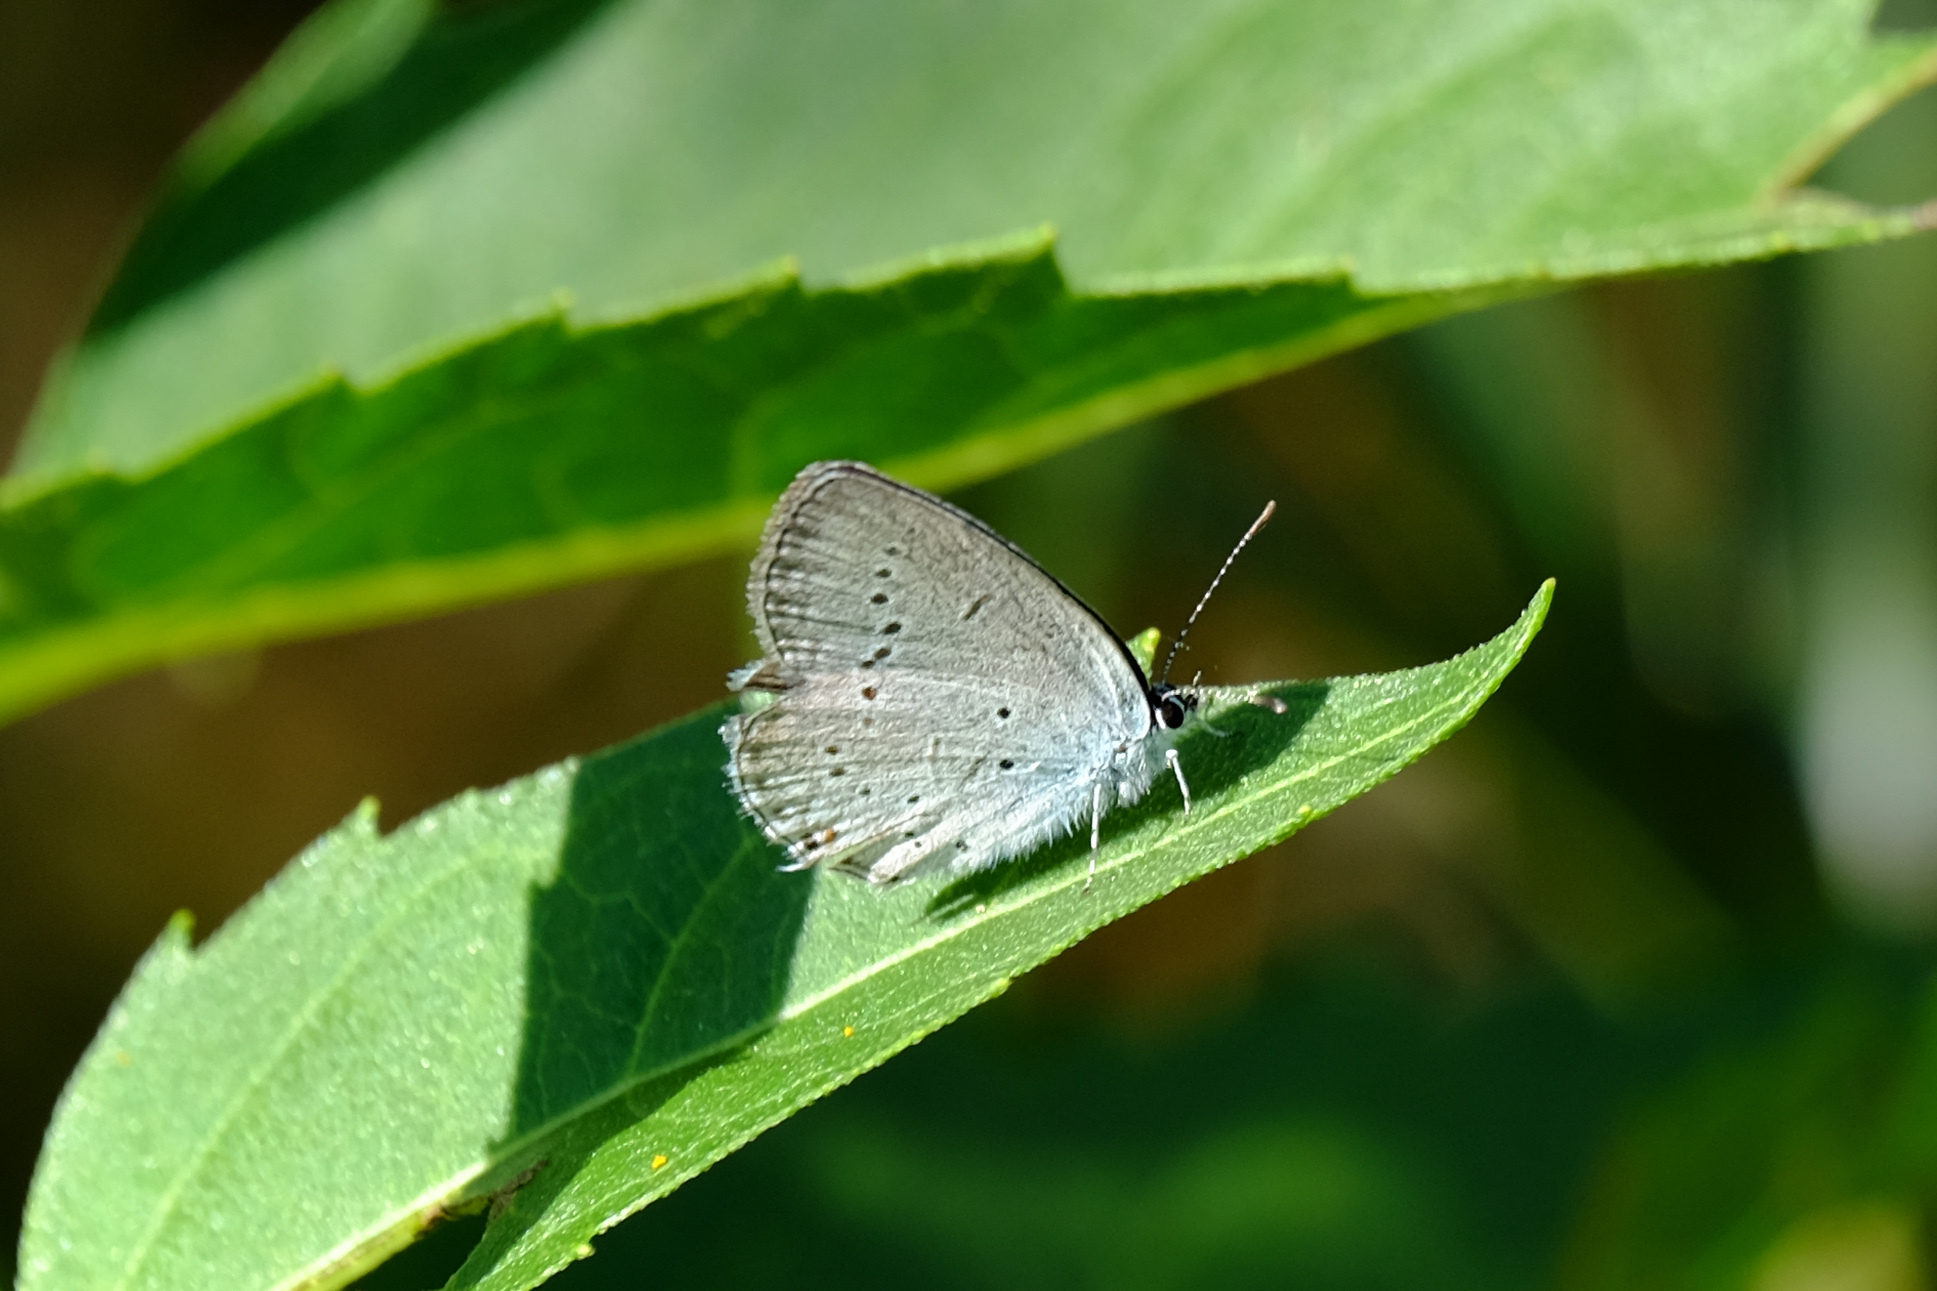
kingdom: Animalia
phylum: Arthropoda
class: Insecta
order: Lepidoptera
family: Lycaenidae
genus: Elkalyce
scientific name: Elkalyce decolorata
